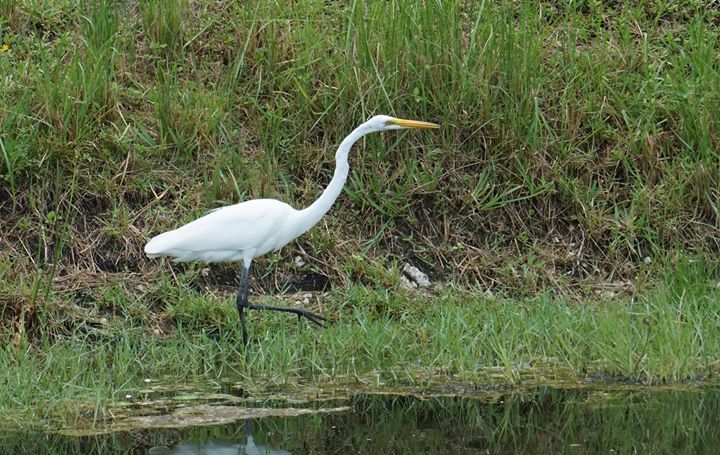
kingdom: Animalia
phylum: Chordata
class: Aves
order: Pelecaniformes
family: Ardeidae
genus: Ardea
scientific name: Ardea alba
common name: Great egret
